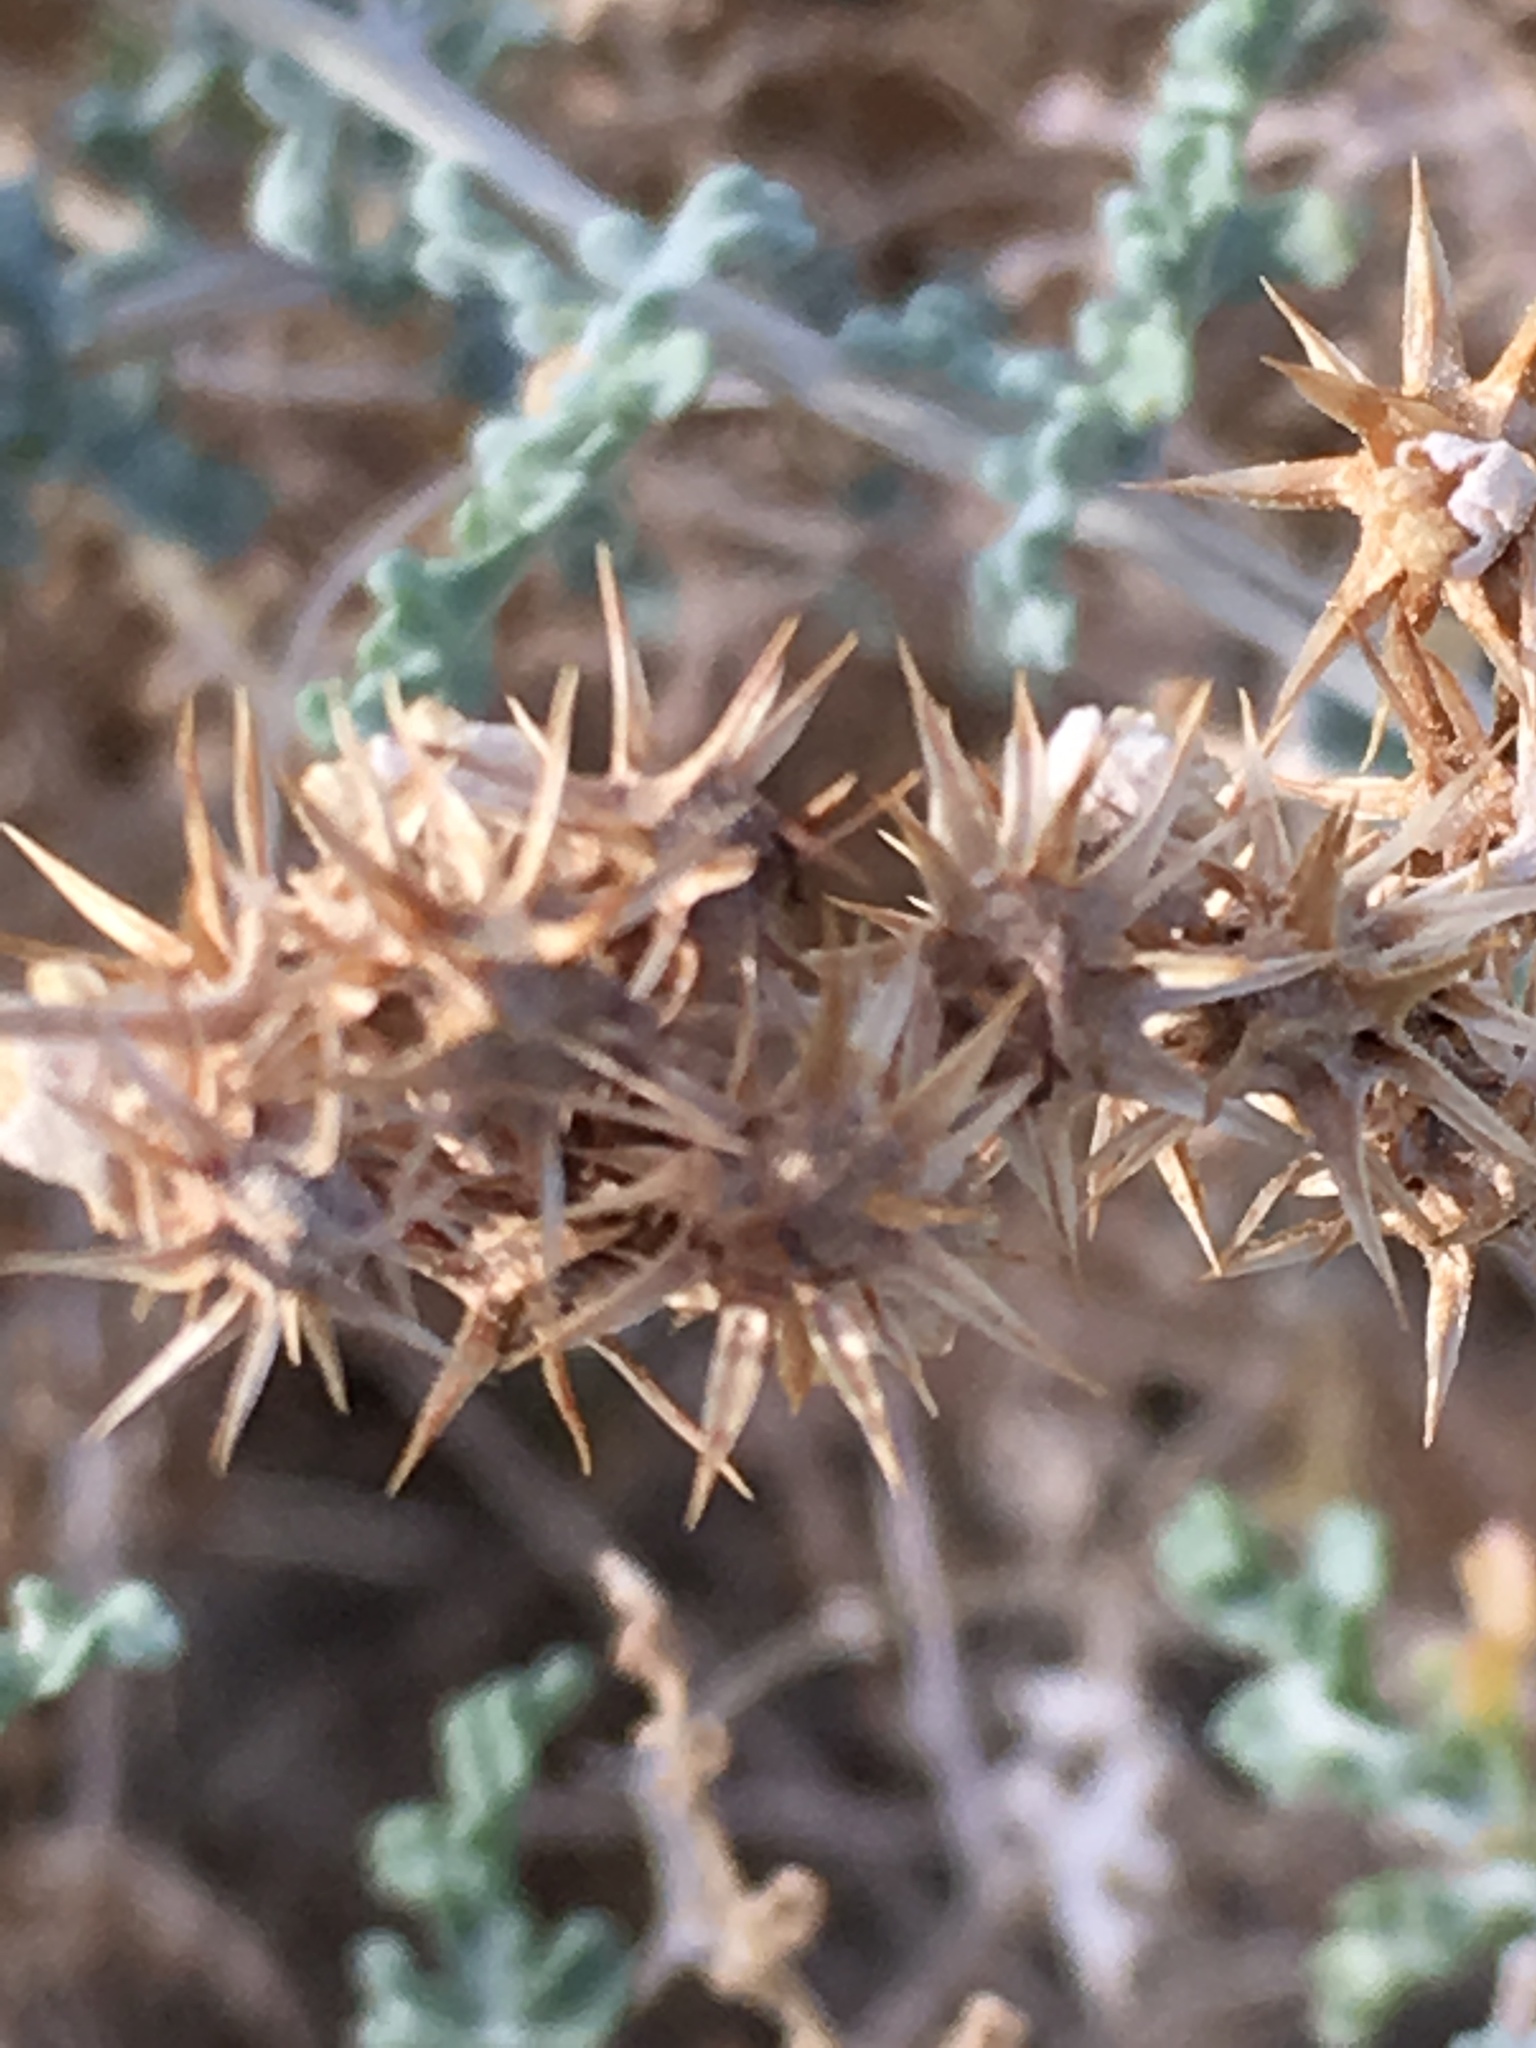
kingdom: Plantae
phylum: Tracheophyta
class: Magnoliopsida
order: Asterales
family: Asteraceae
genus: Ambrosia
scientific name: Ambrosia dumosa
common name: Bur-sage
